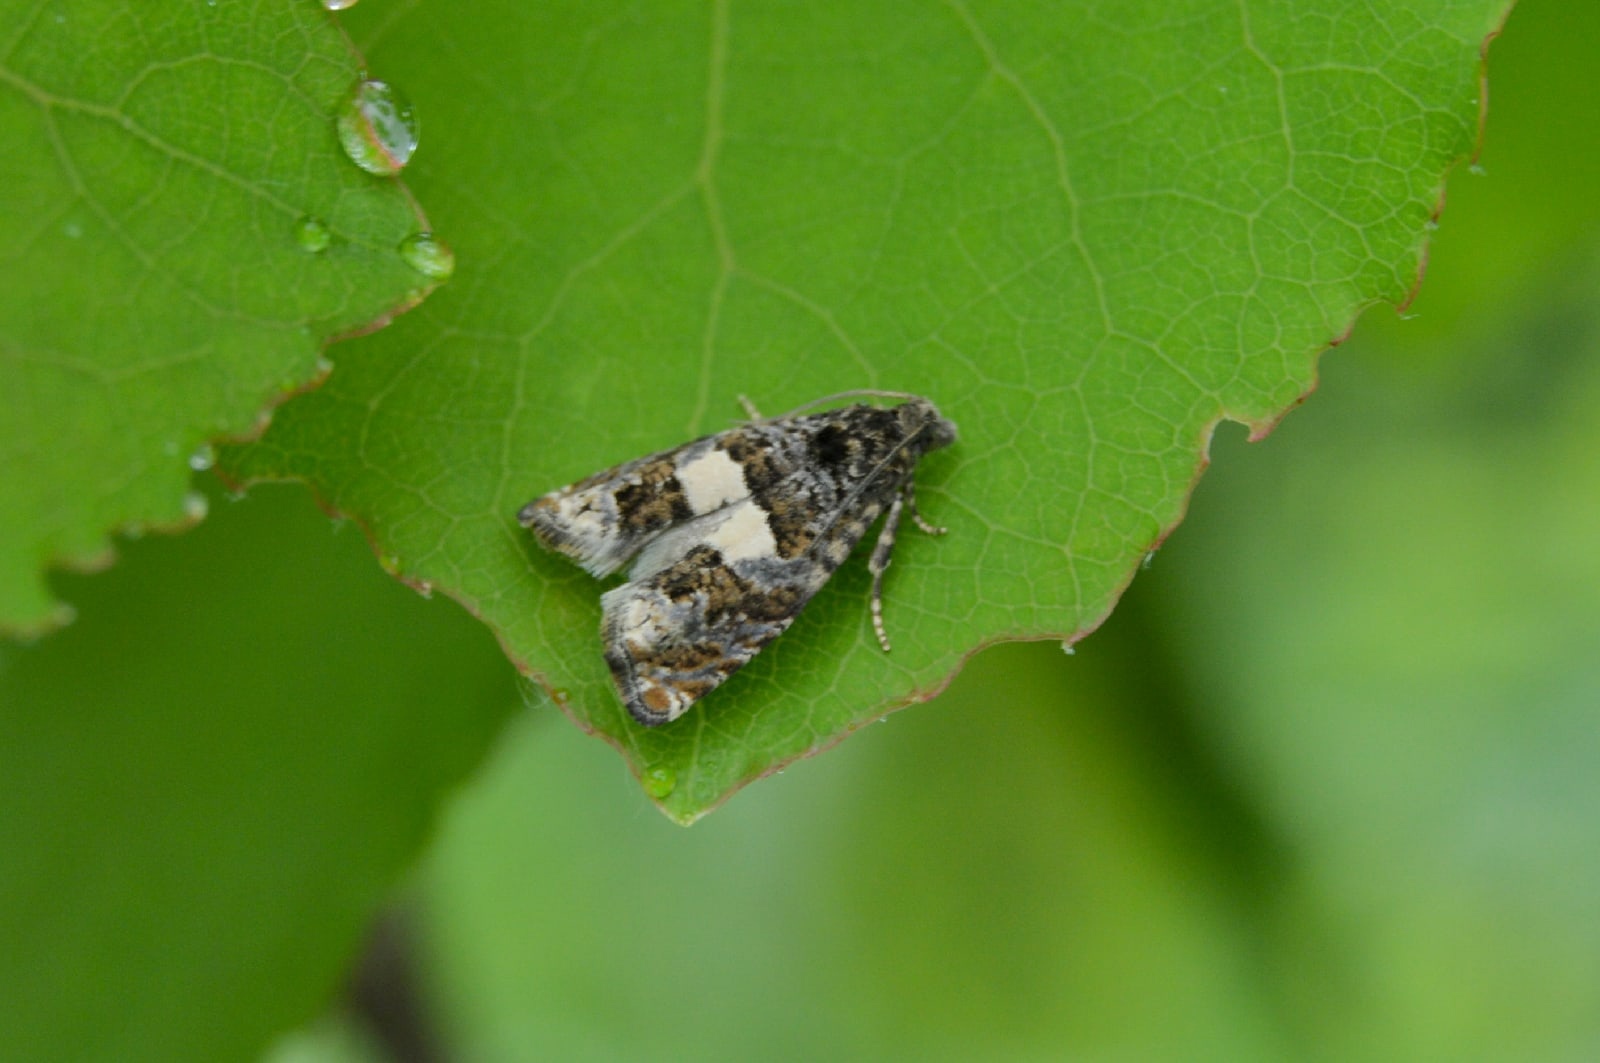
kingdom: Animalia
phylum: Arthropoda
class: Insecta
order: Lepidoptera
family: Tortricidae
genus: Epiblema
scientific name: Epiblema cirsiana
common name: Knapweed bell
